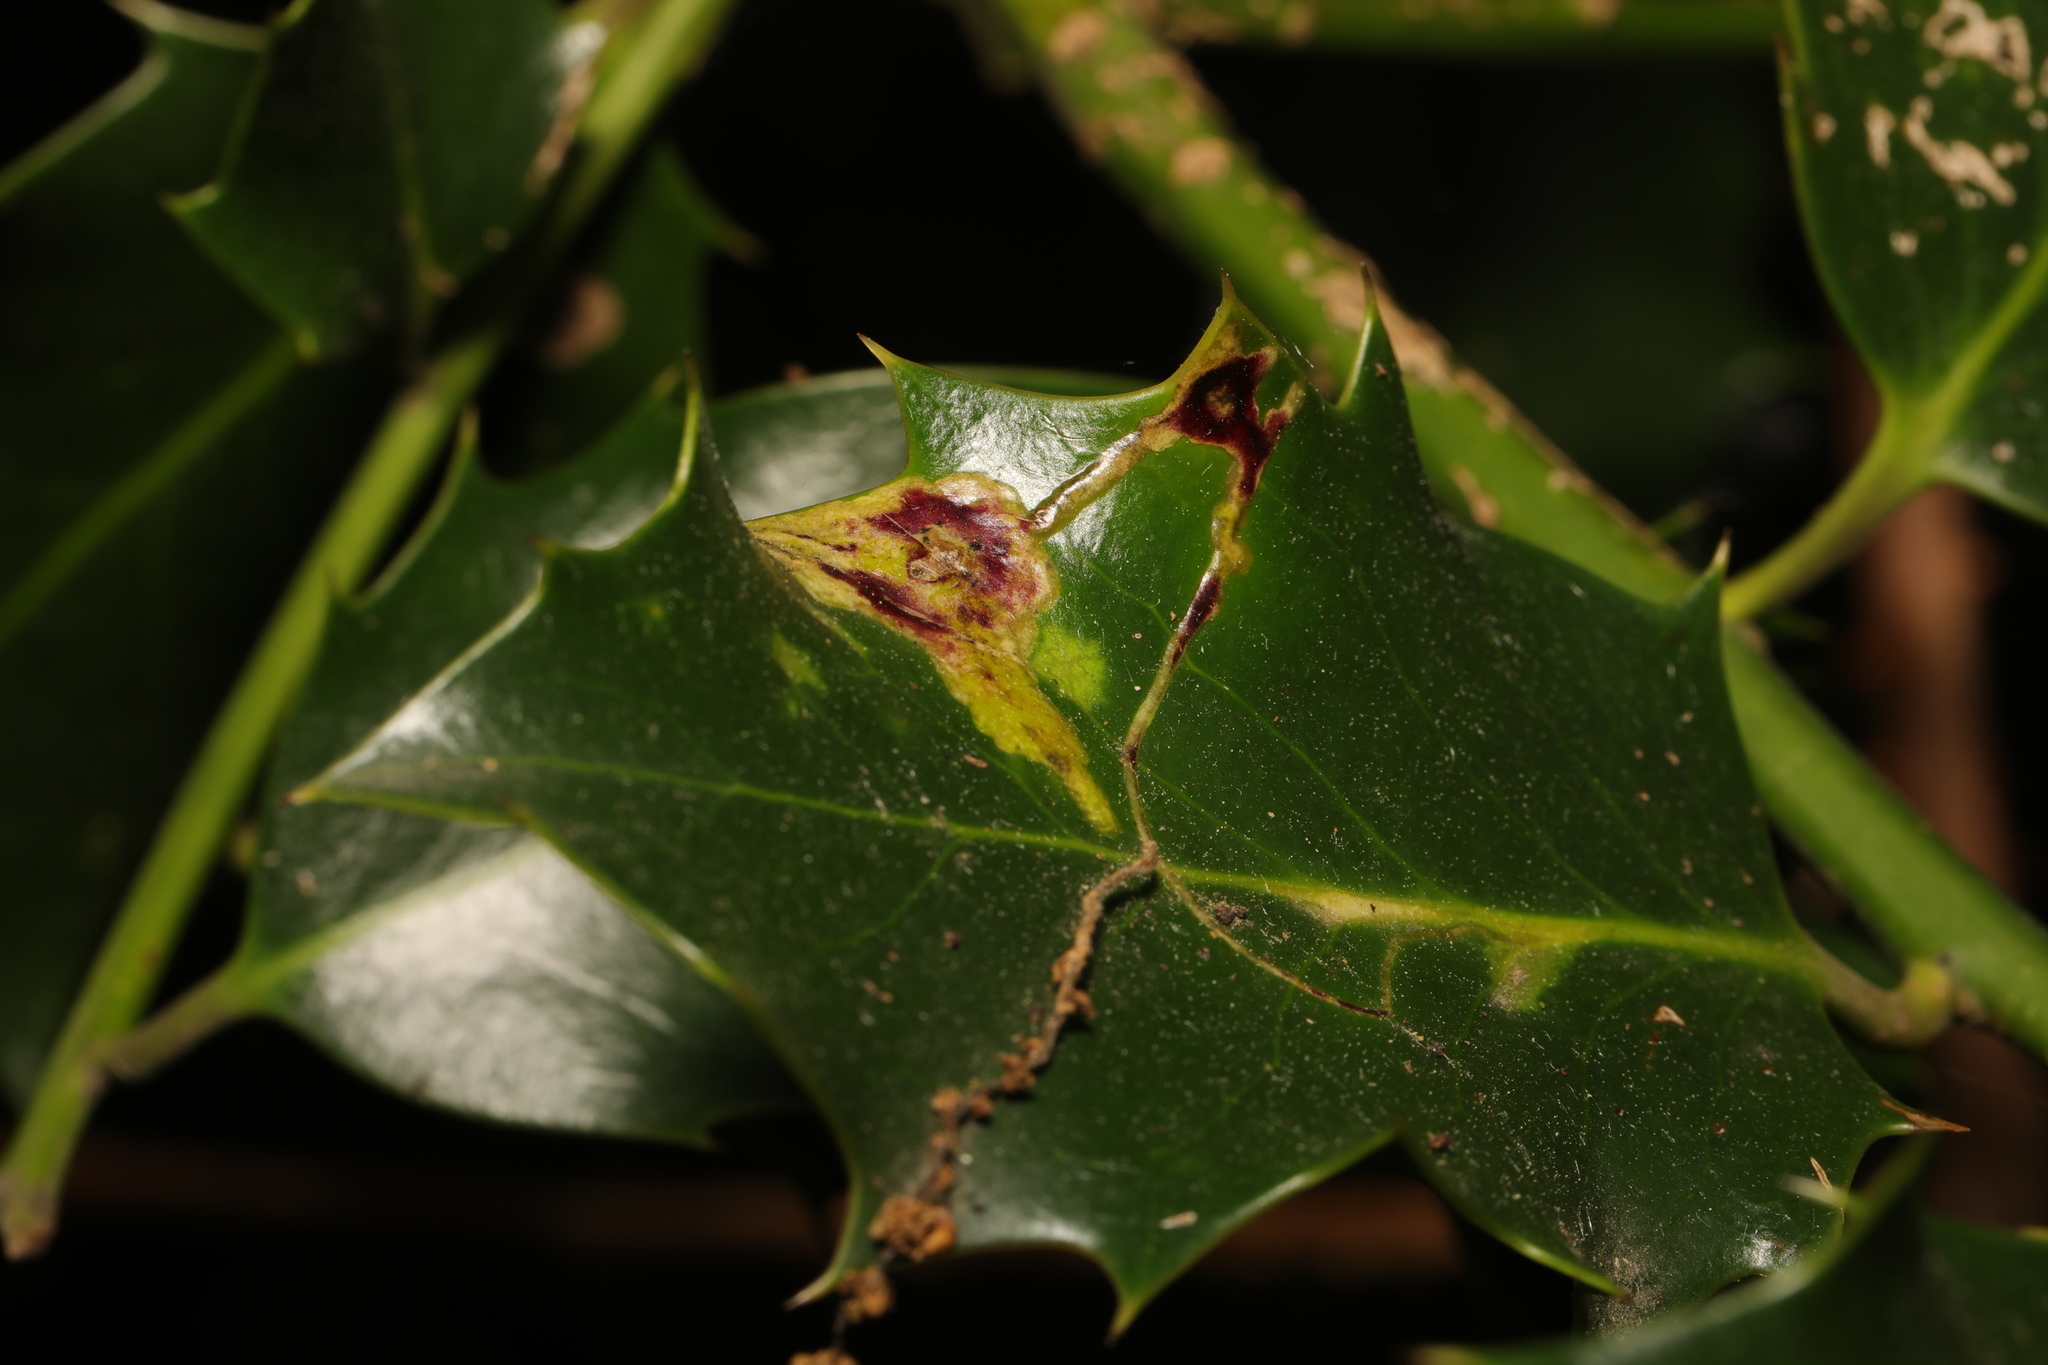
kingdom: Animalia
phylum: Arthropoda
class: Insecta
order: Diptera
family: Agromyzidae
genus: Phytomyza
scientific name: Phytomyza ilicis
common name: Holly leafminer
